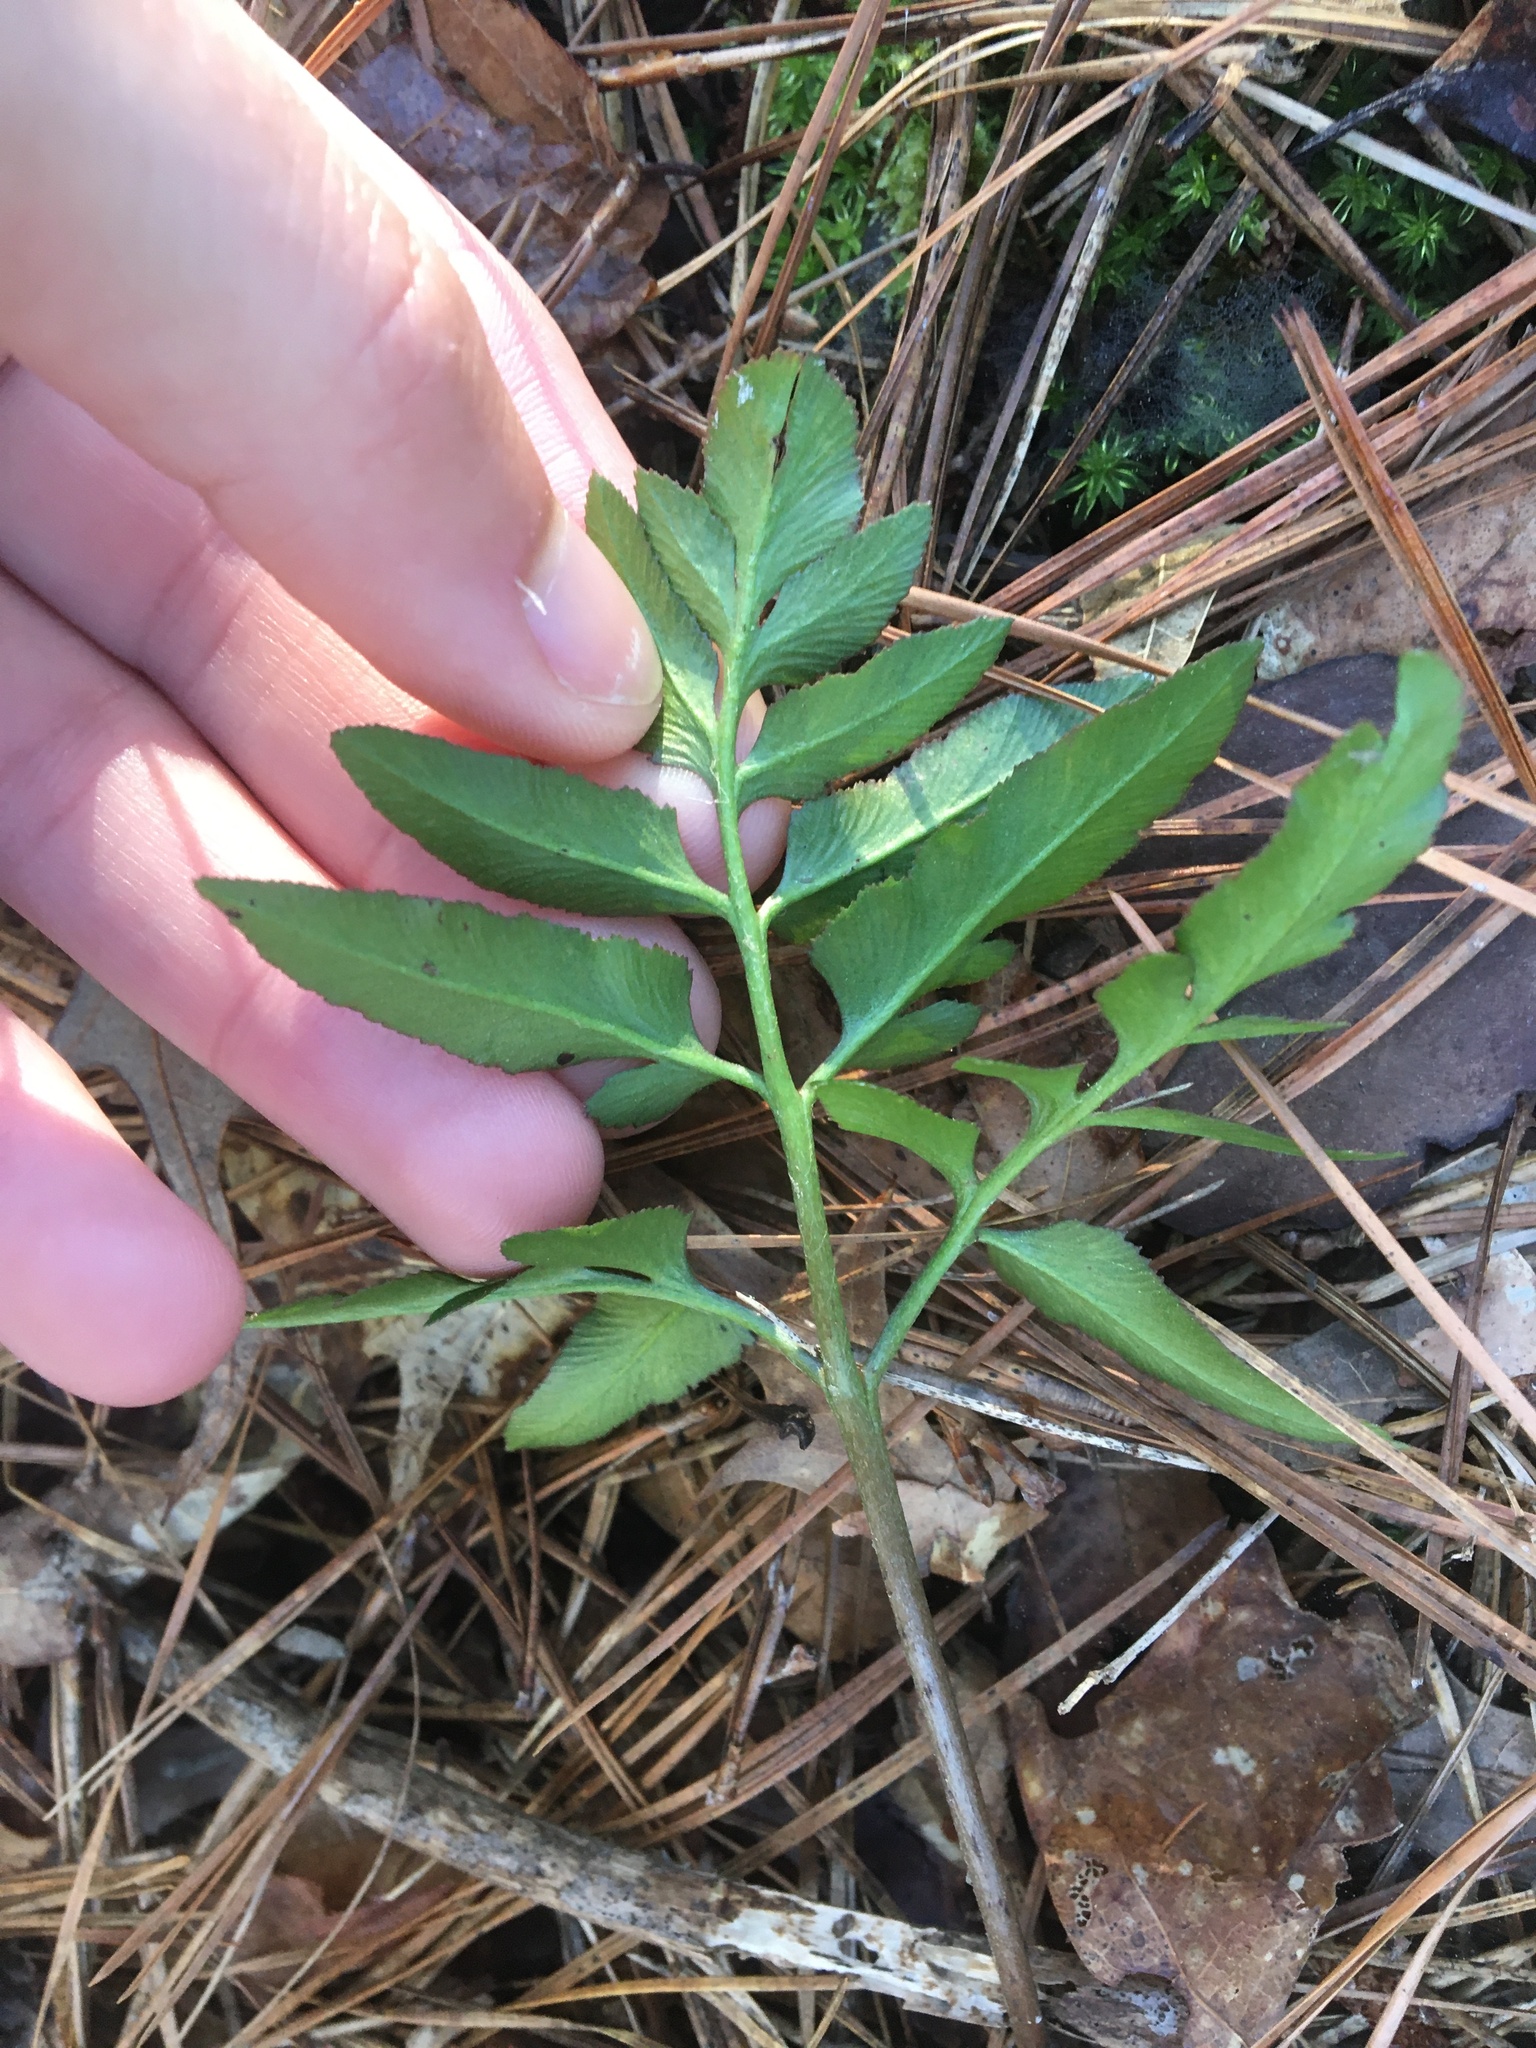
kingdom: Plantae
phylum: Tracheophyta
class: Polypodiopsida
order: Ophioglossales
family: Ophioglossaceae
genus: Sceptridium
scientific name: Sceptridium biternatum
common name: Sparse-lobed grapefern
